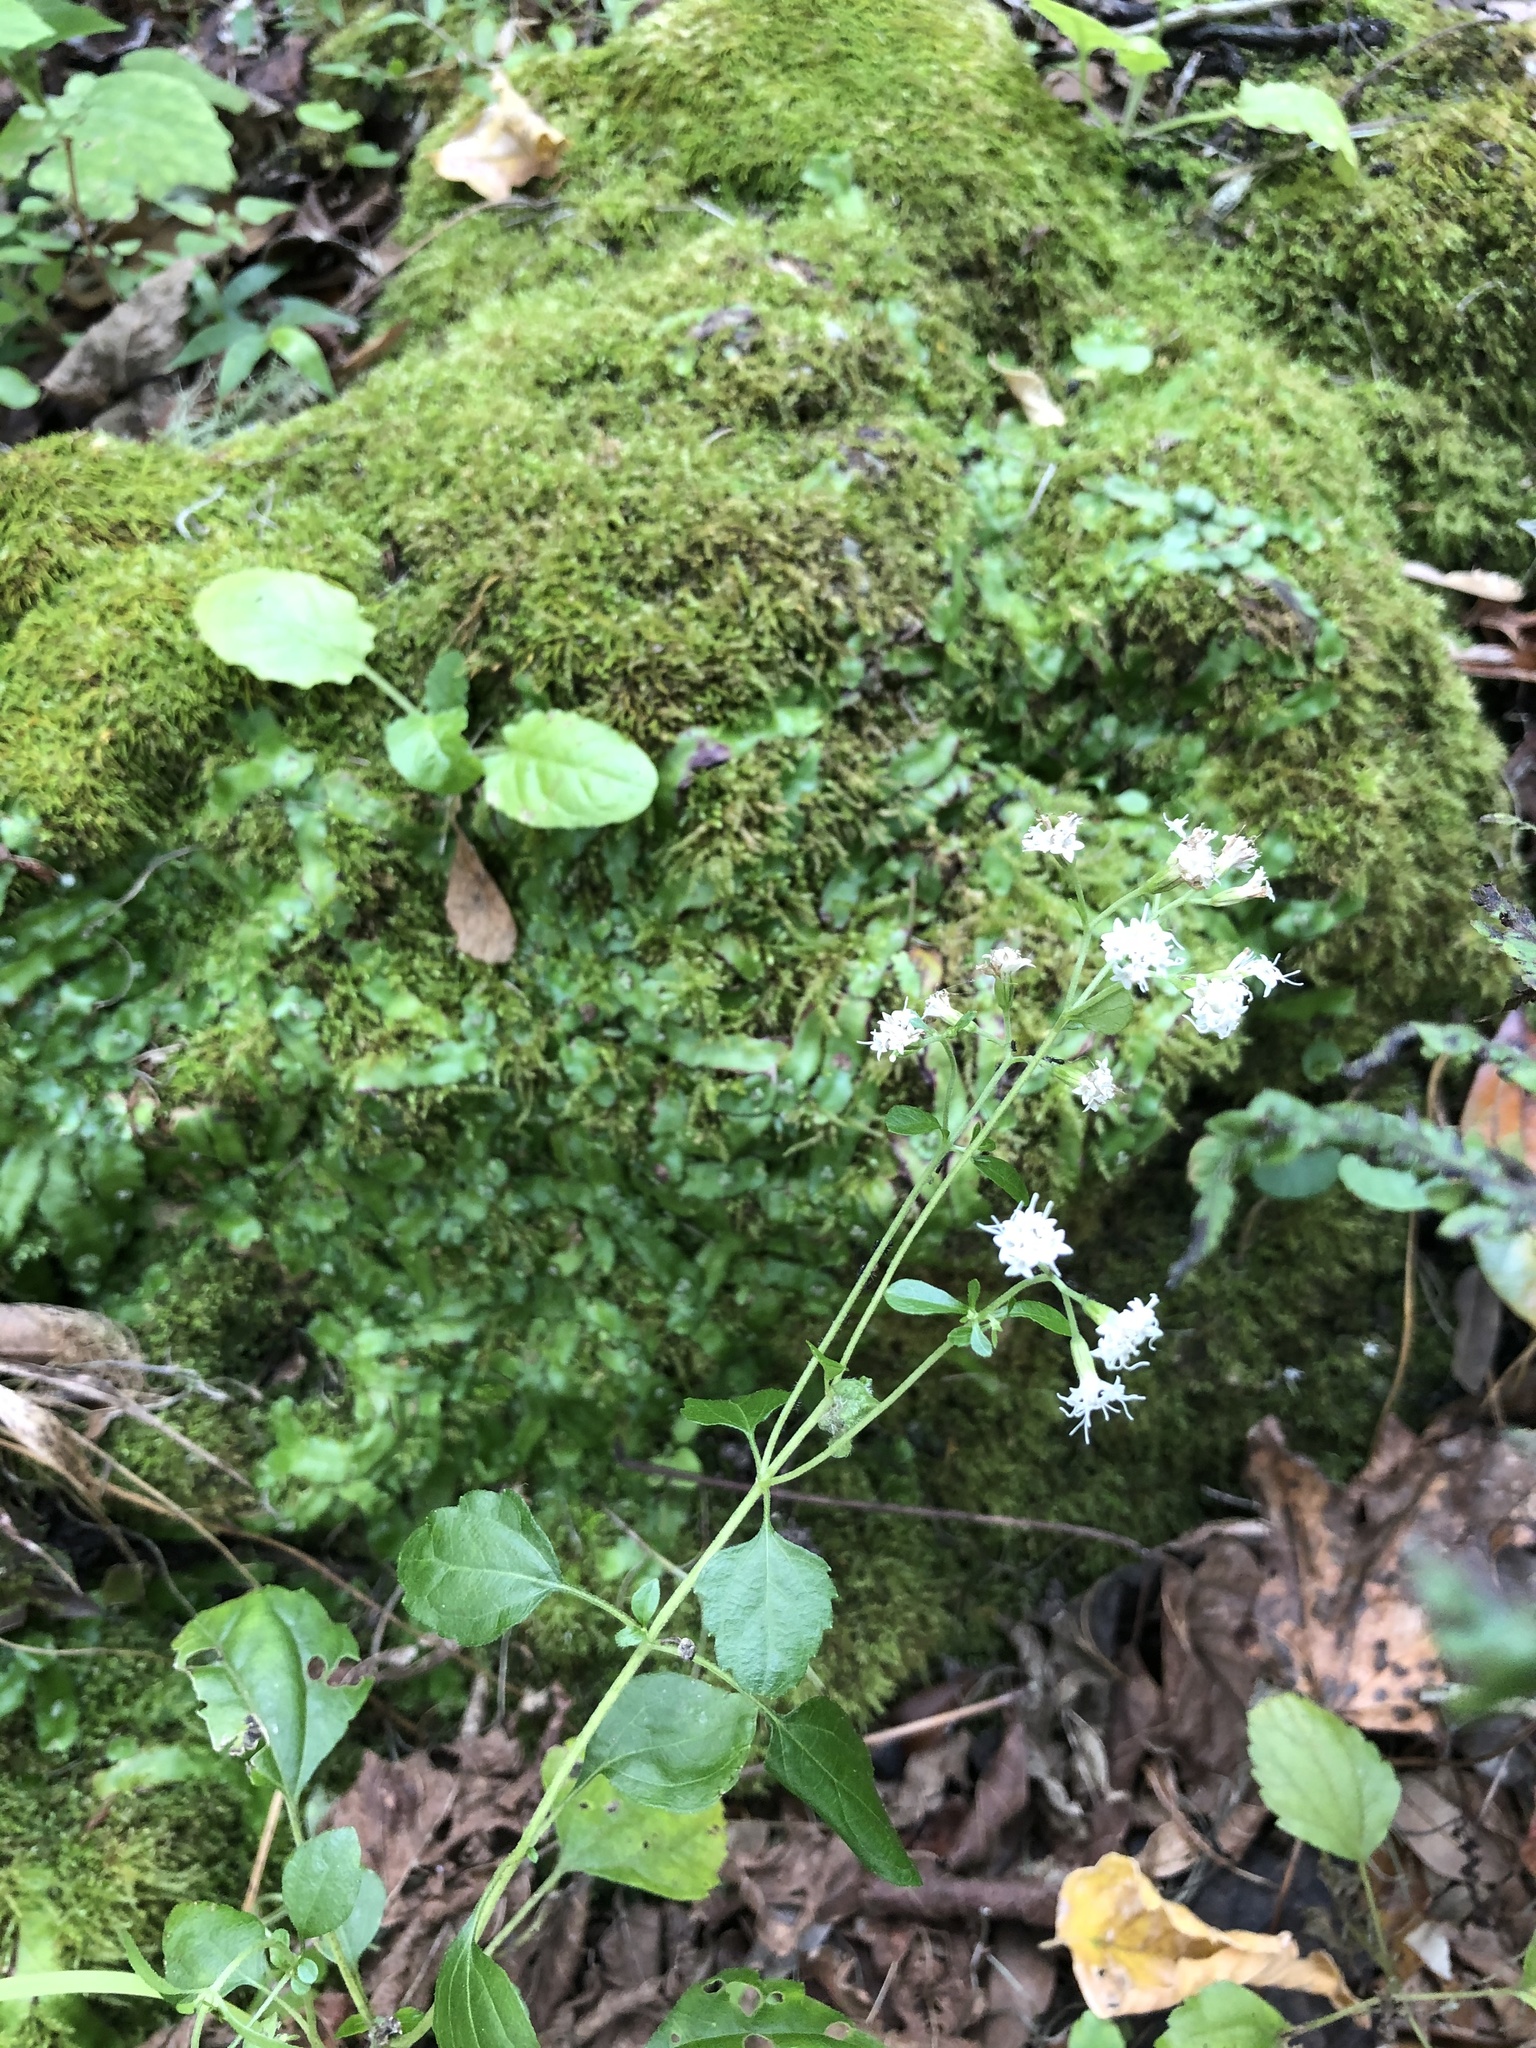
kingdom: Plantae
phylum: Tracheophyta
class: Magnoliopsida
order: Asterales
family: Asteraceae
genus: Ageratina
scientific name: Ageratina jucunda
